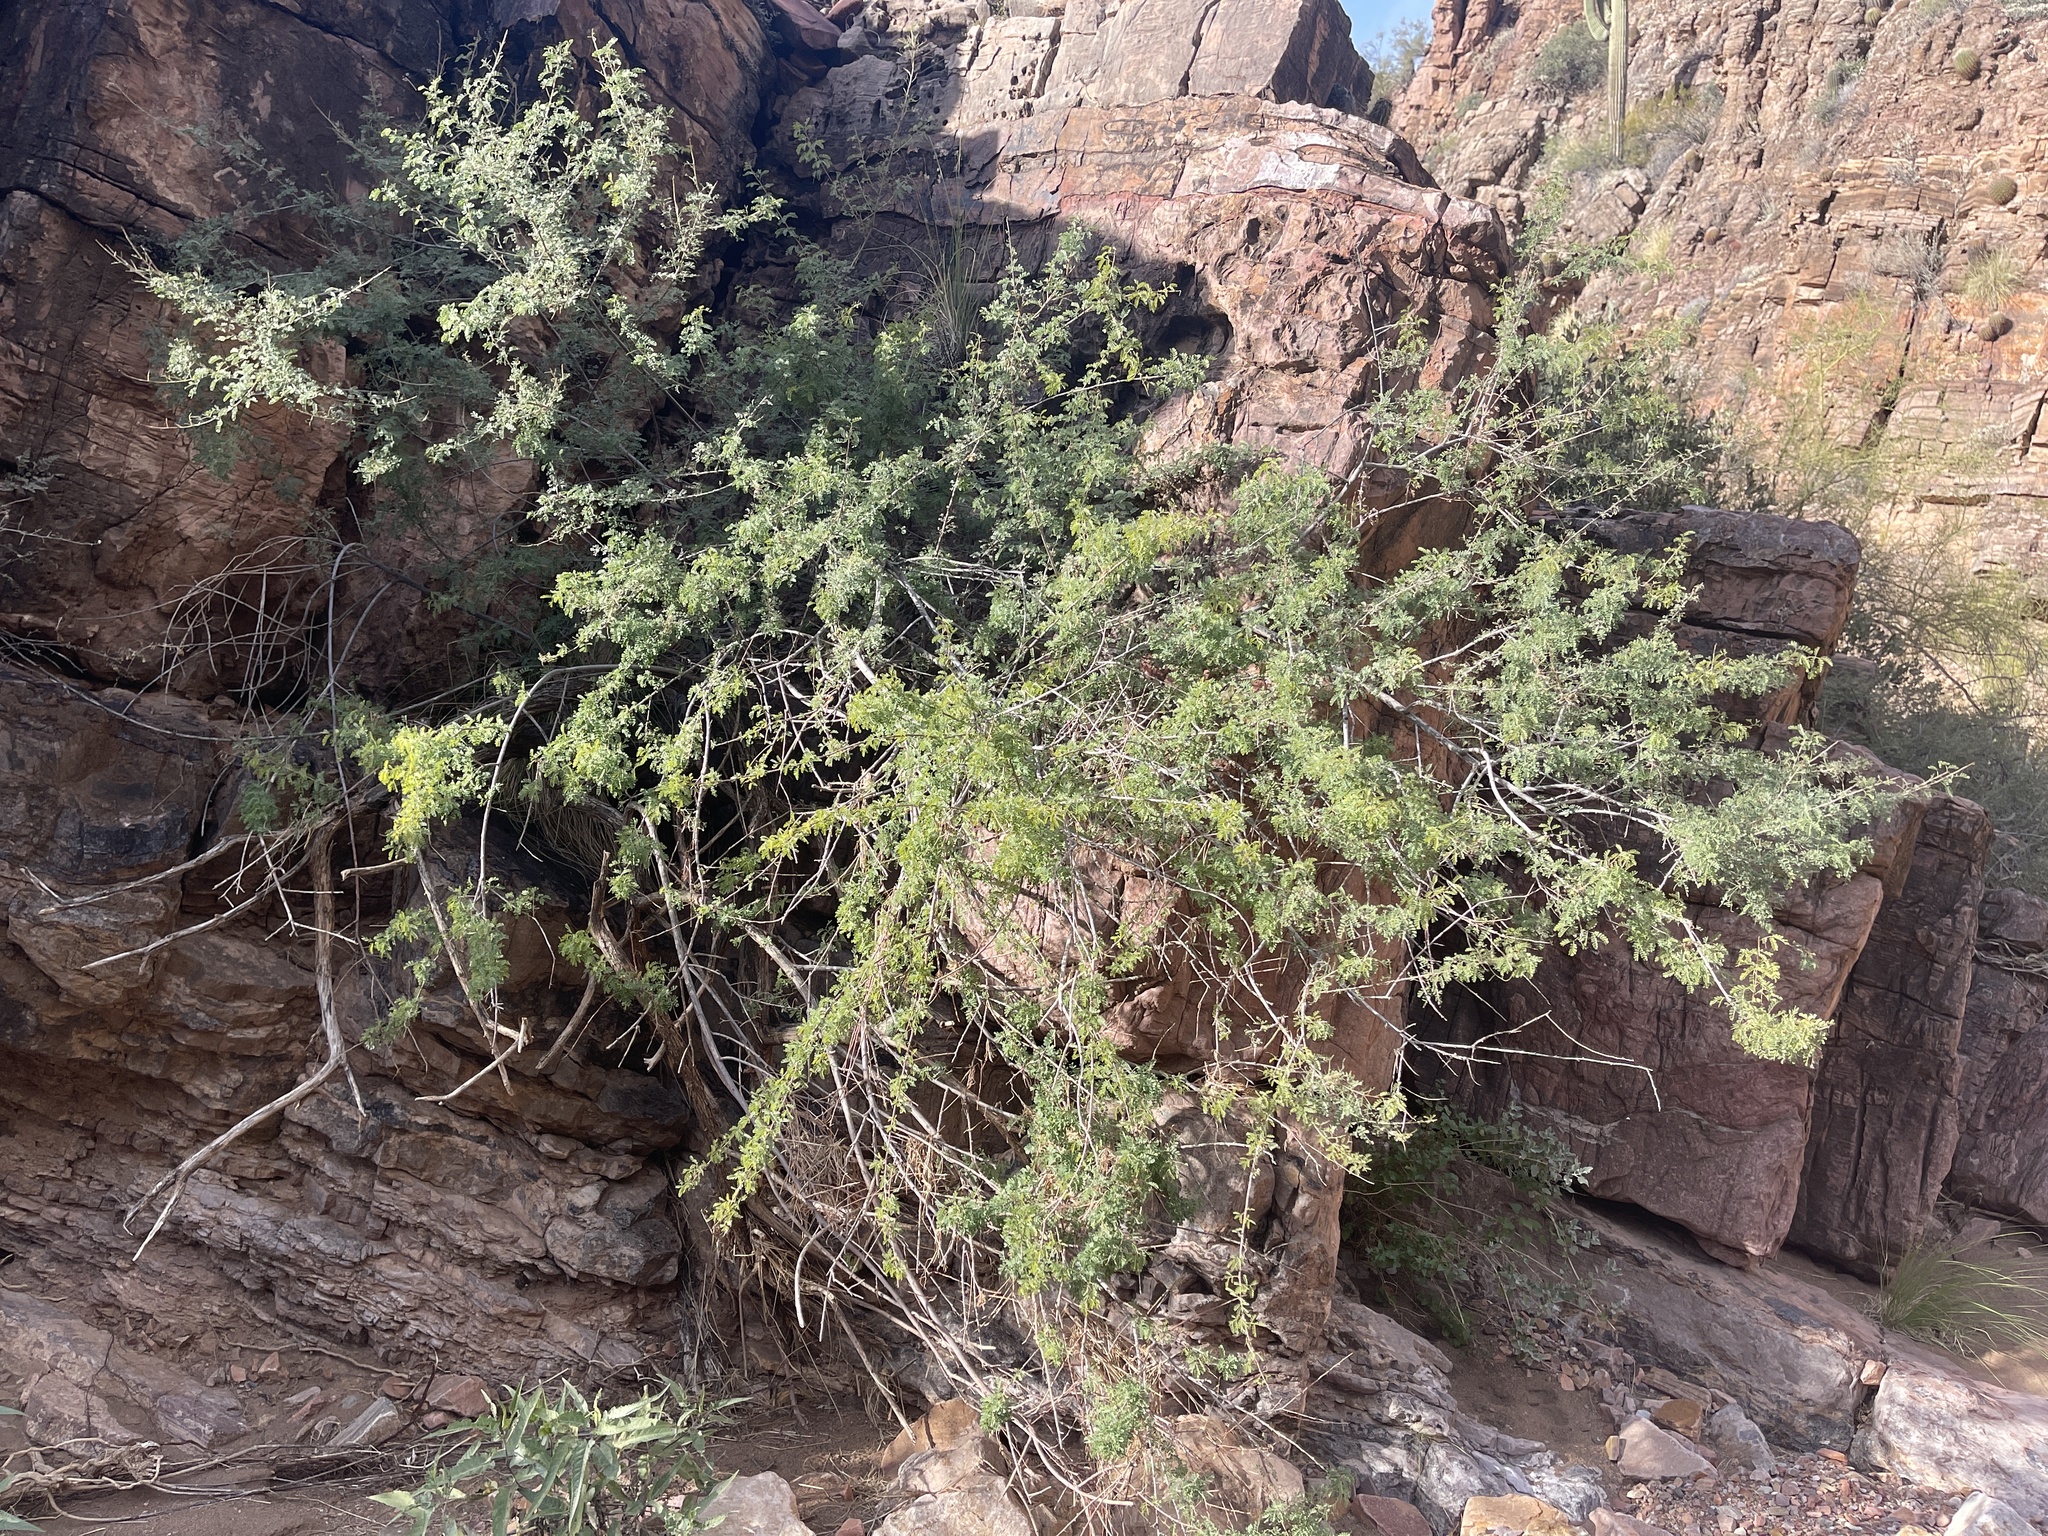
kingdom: Plantae
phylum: Tracheophyta
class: Magnoliopsida
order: Fabales
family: Fabaceae
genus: Senegalia
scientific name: Senegalia greggii
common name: Texas-mimosa
